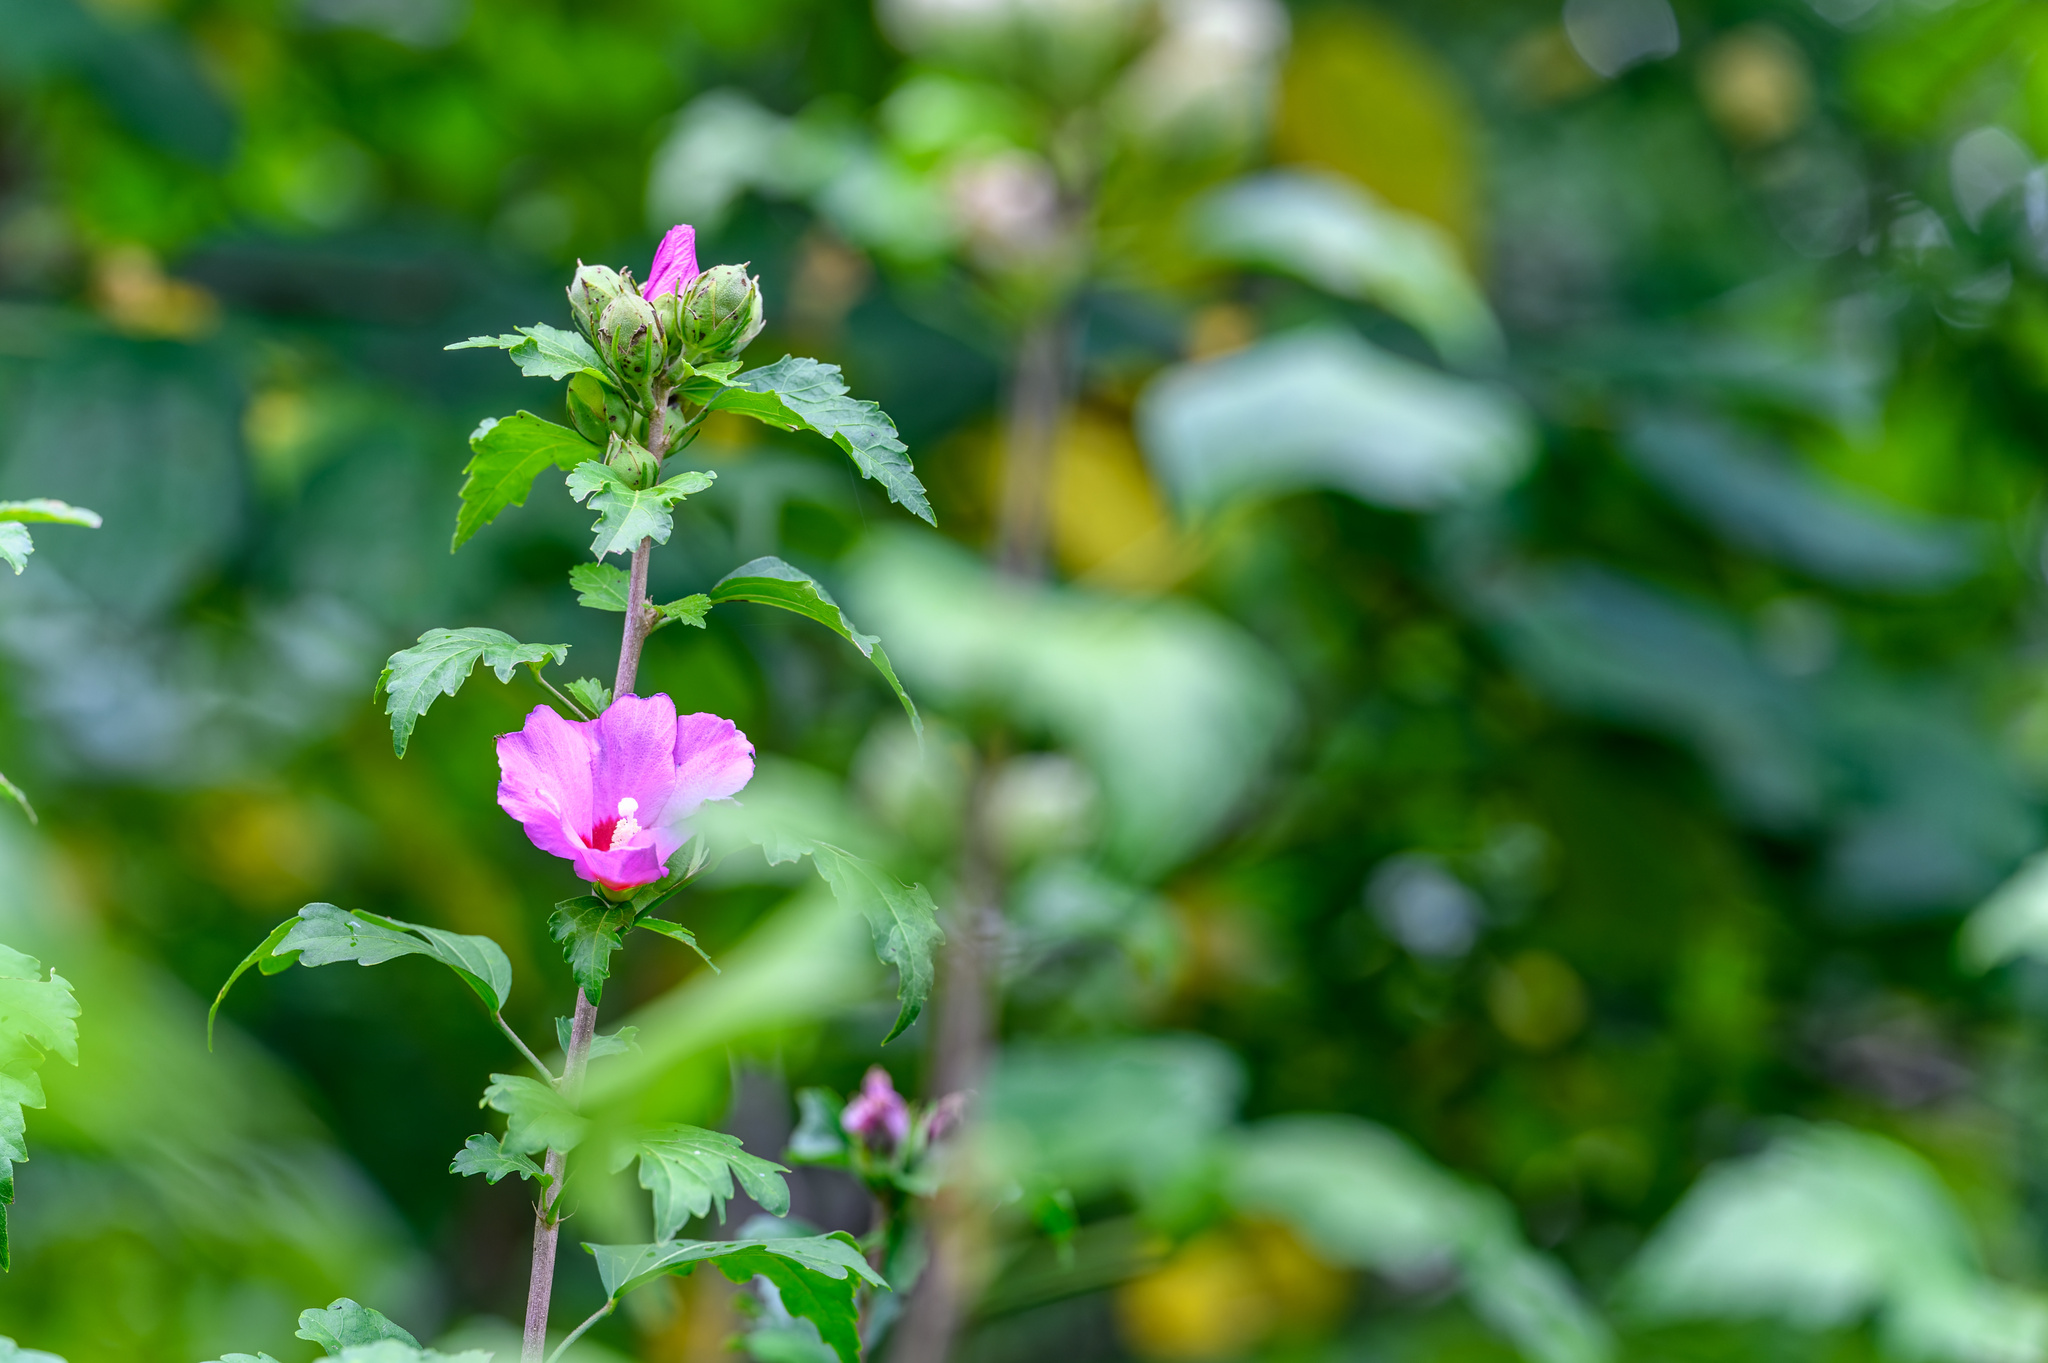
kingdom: Plantae
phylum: Tracheophyta
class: Magnoliopsida
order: Malvales
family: Malvaceae
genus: Hibiscus
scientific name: Hibiscus syriacus
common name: Syrian ketmia
